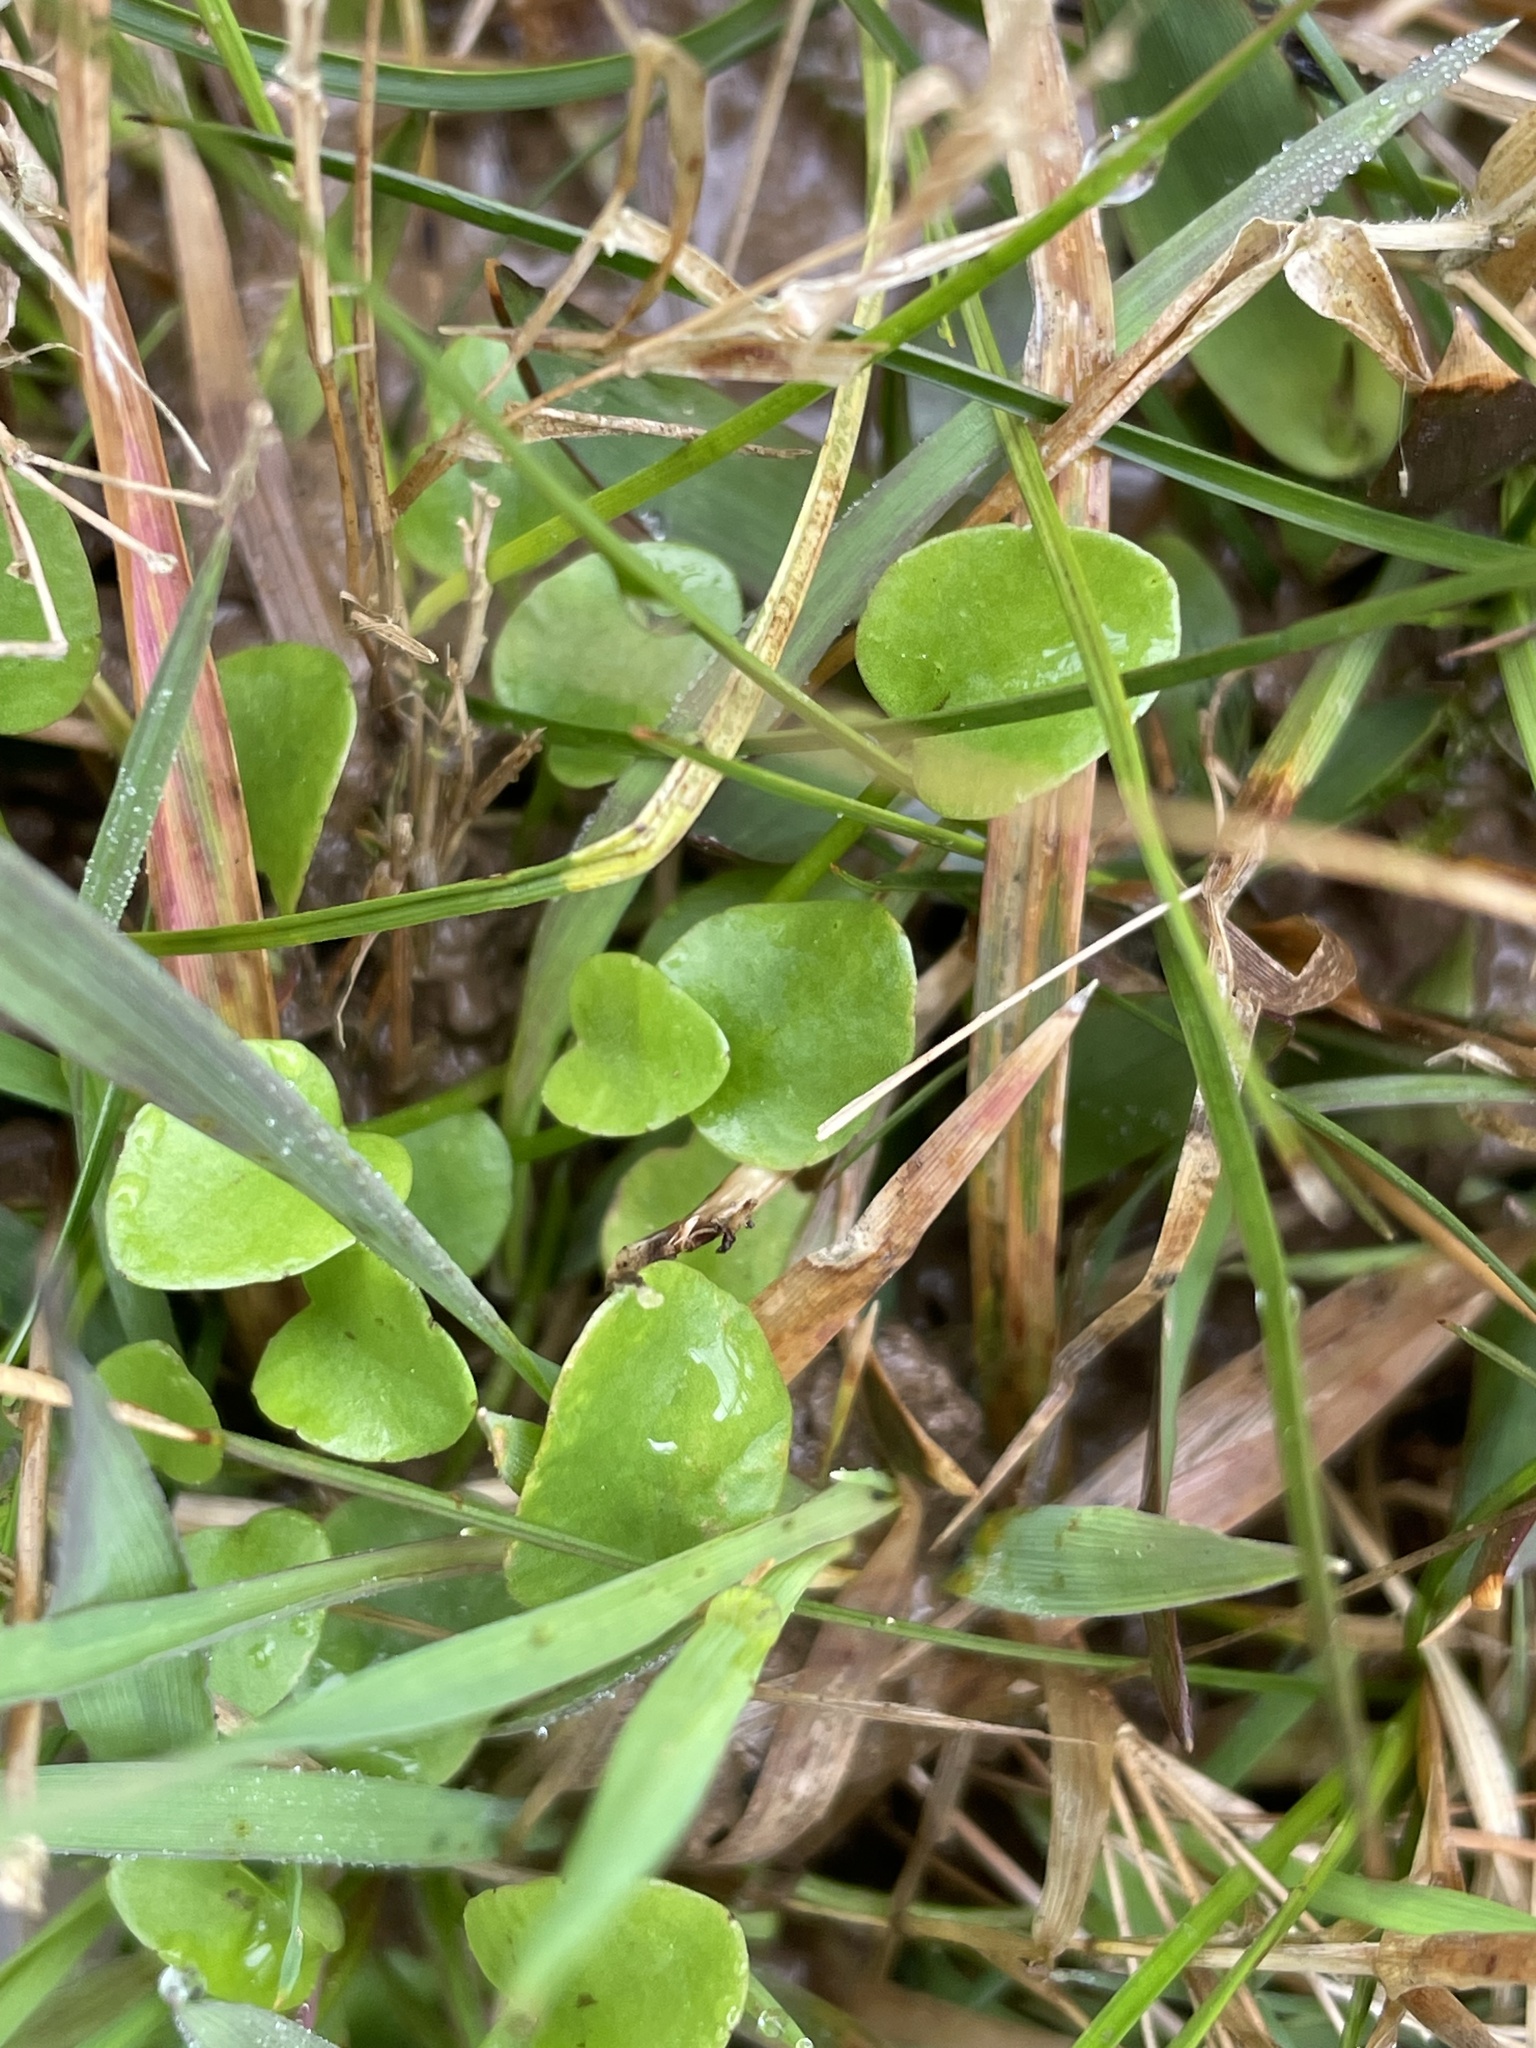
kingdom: Plantae
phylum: Tracheophyta
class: Magnoliopsida
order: Ranunculales
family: Ranunculaceae
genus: Ranunculus
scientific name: Ranunculus pusillus
